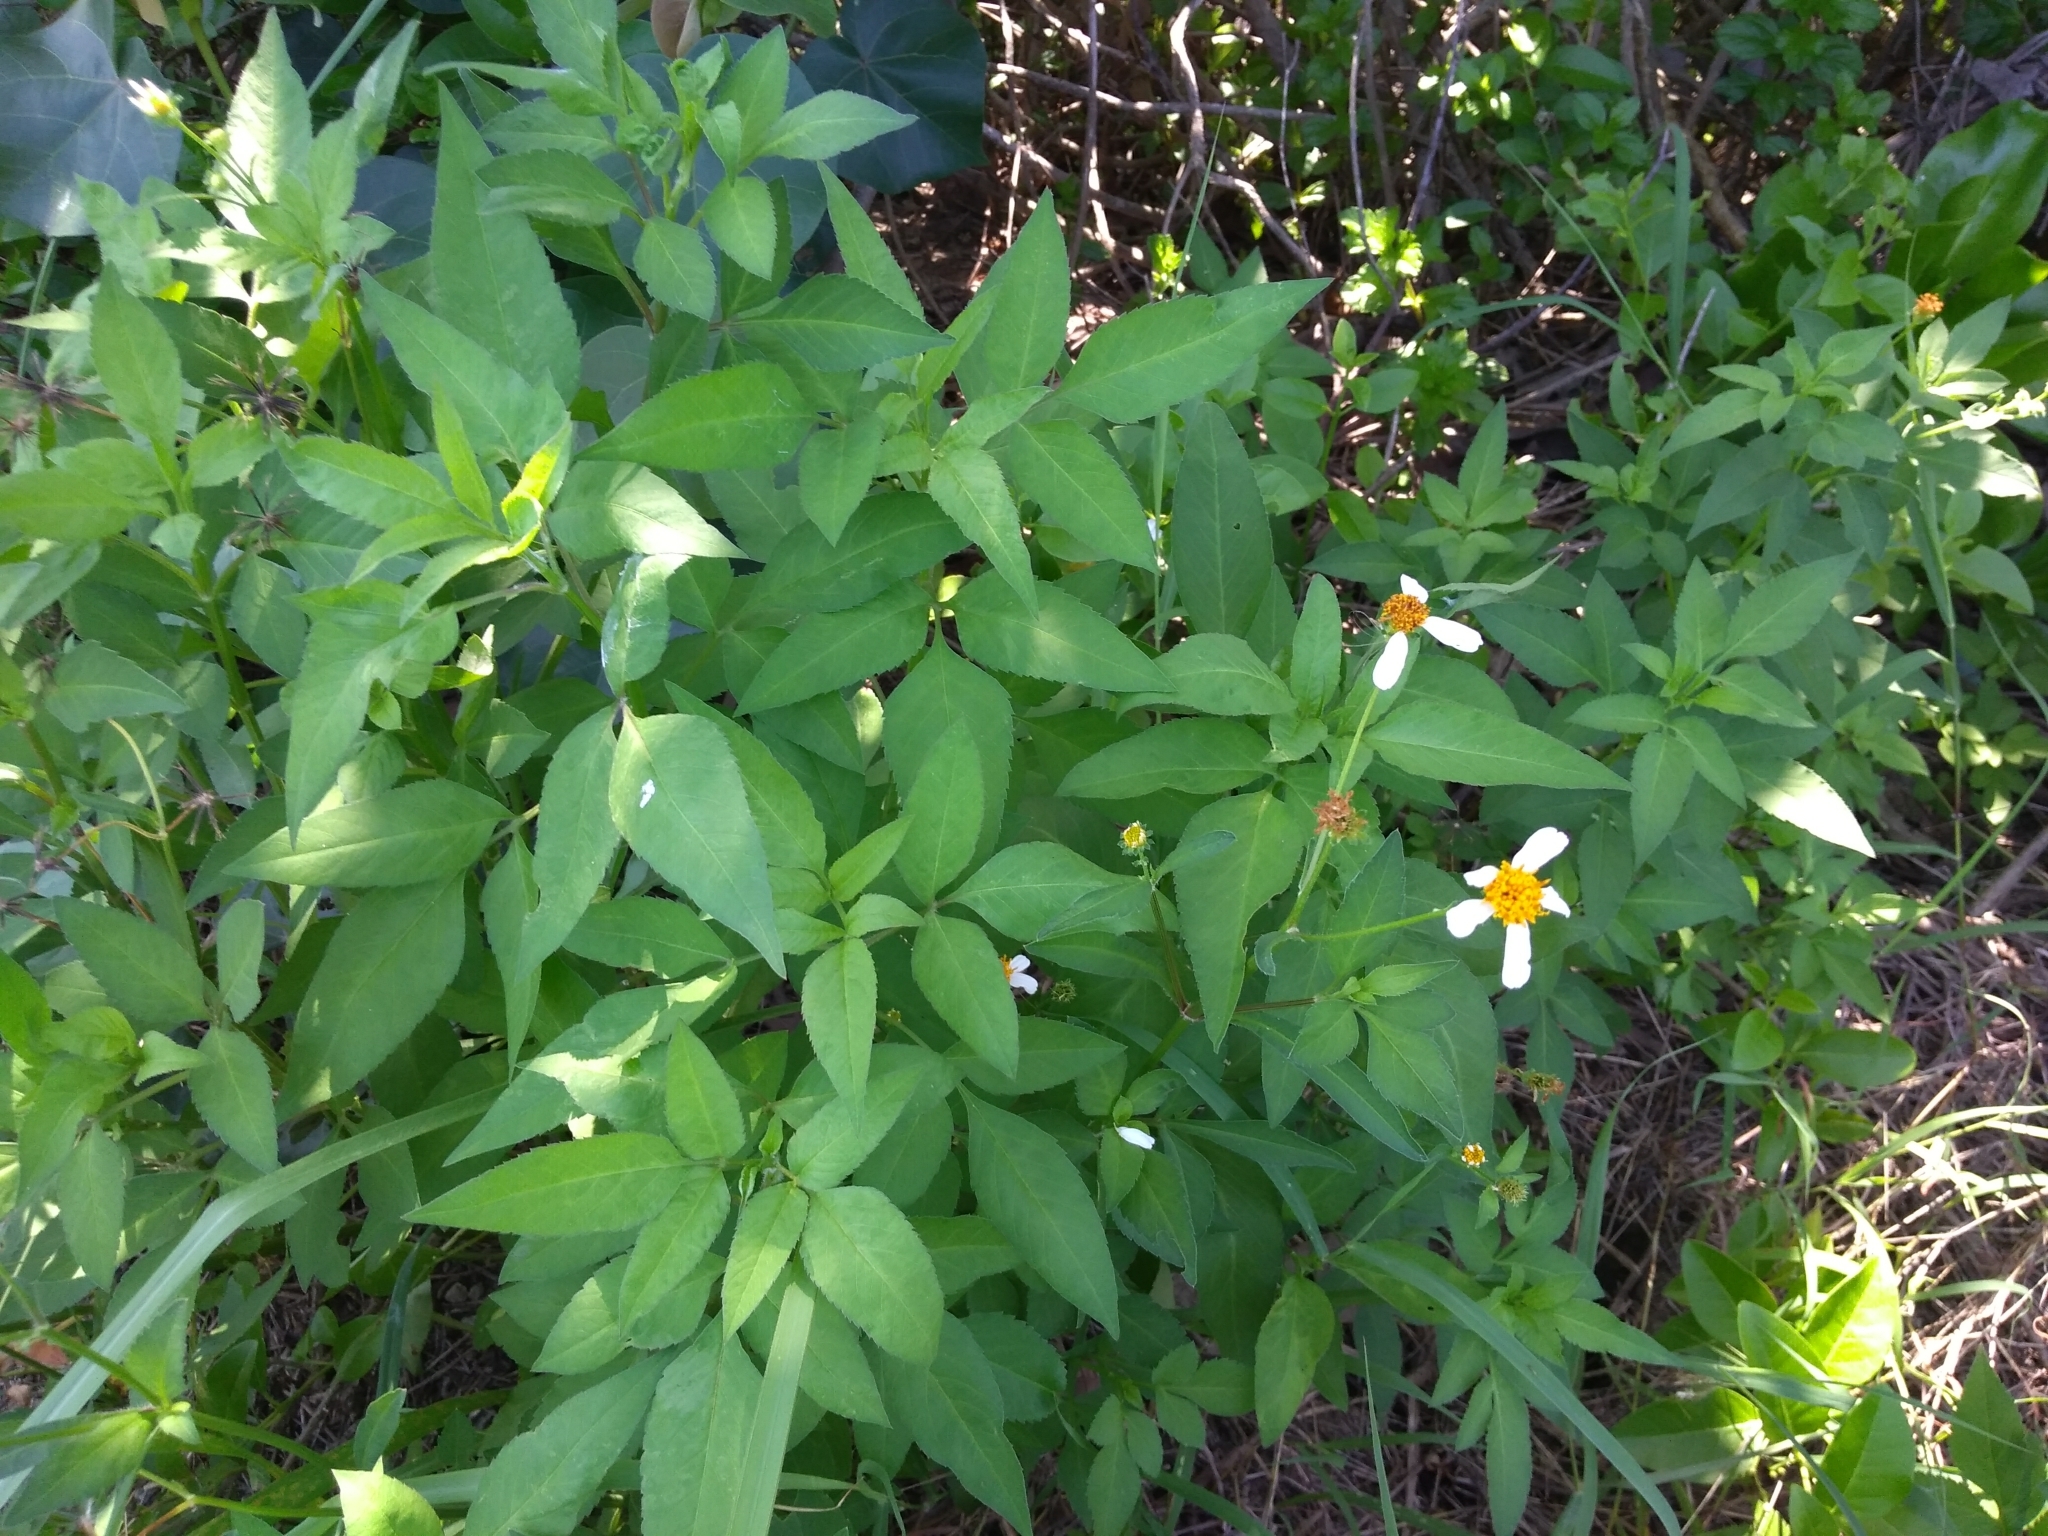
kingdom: Plantae
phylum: Tracheophyta
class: Magnoliopsida
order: Asterales
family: Asteraceae
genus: Bidens
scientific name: Bidens alba
